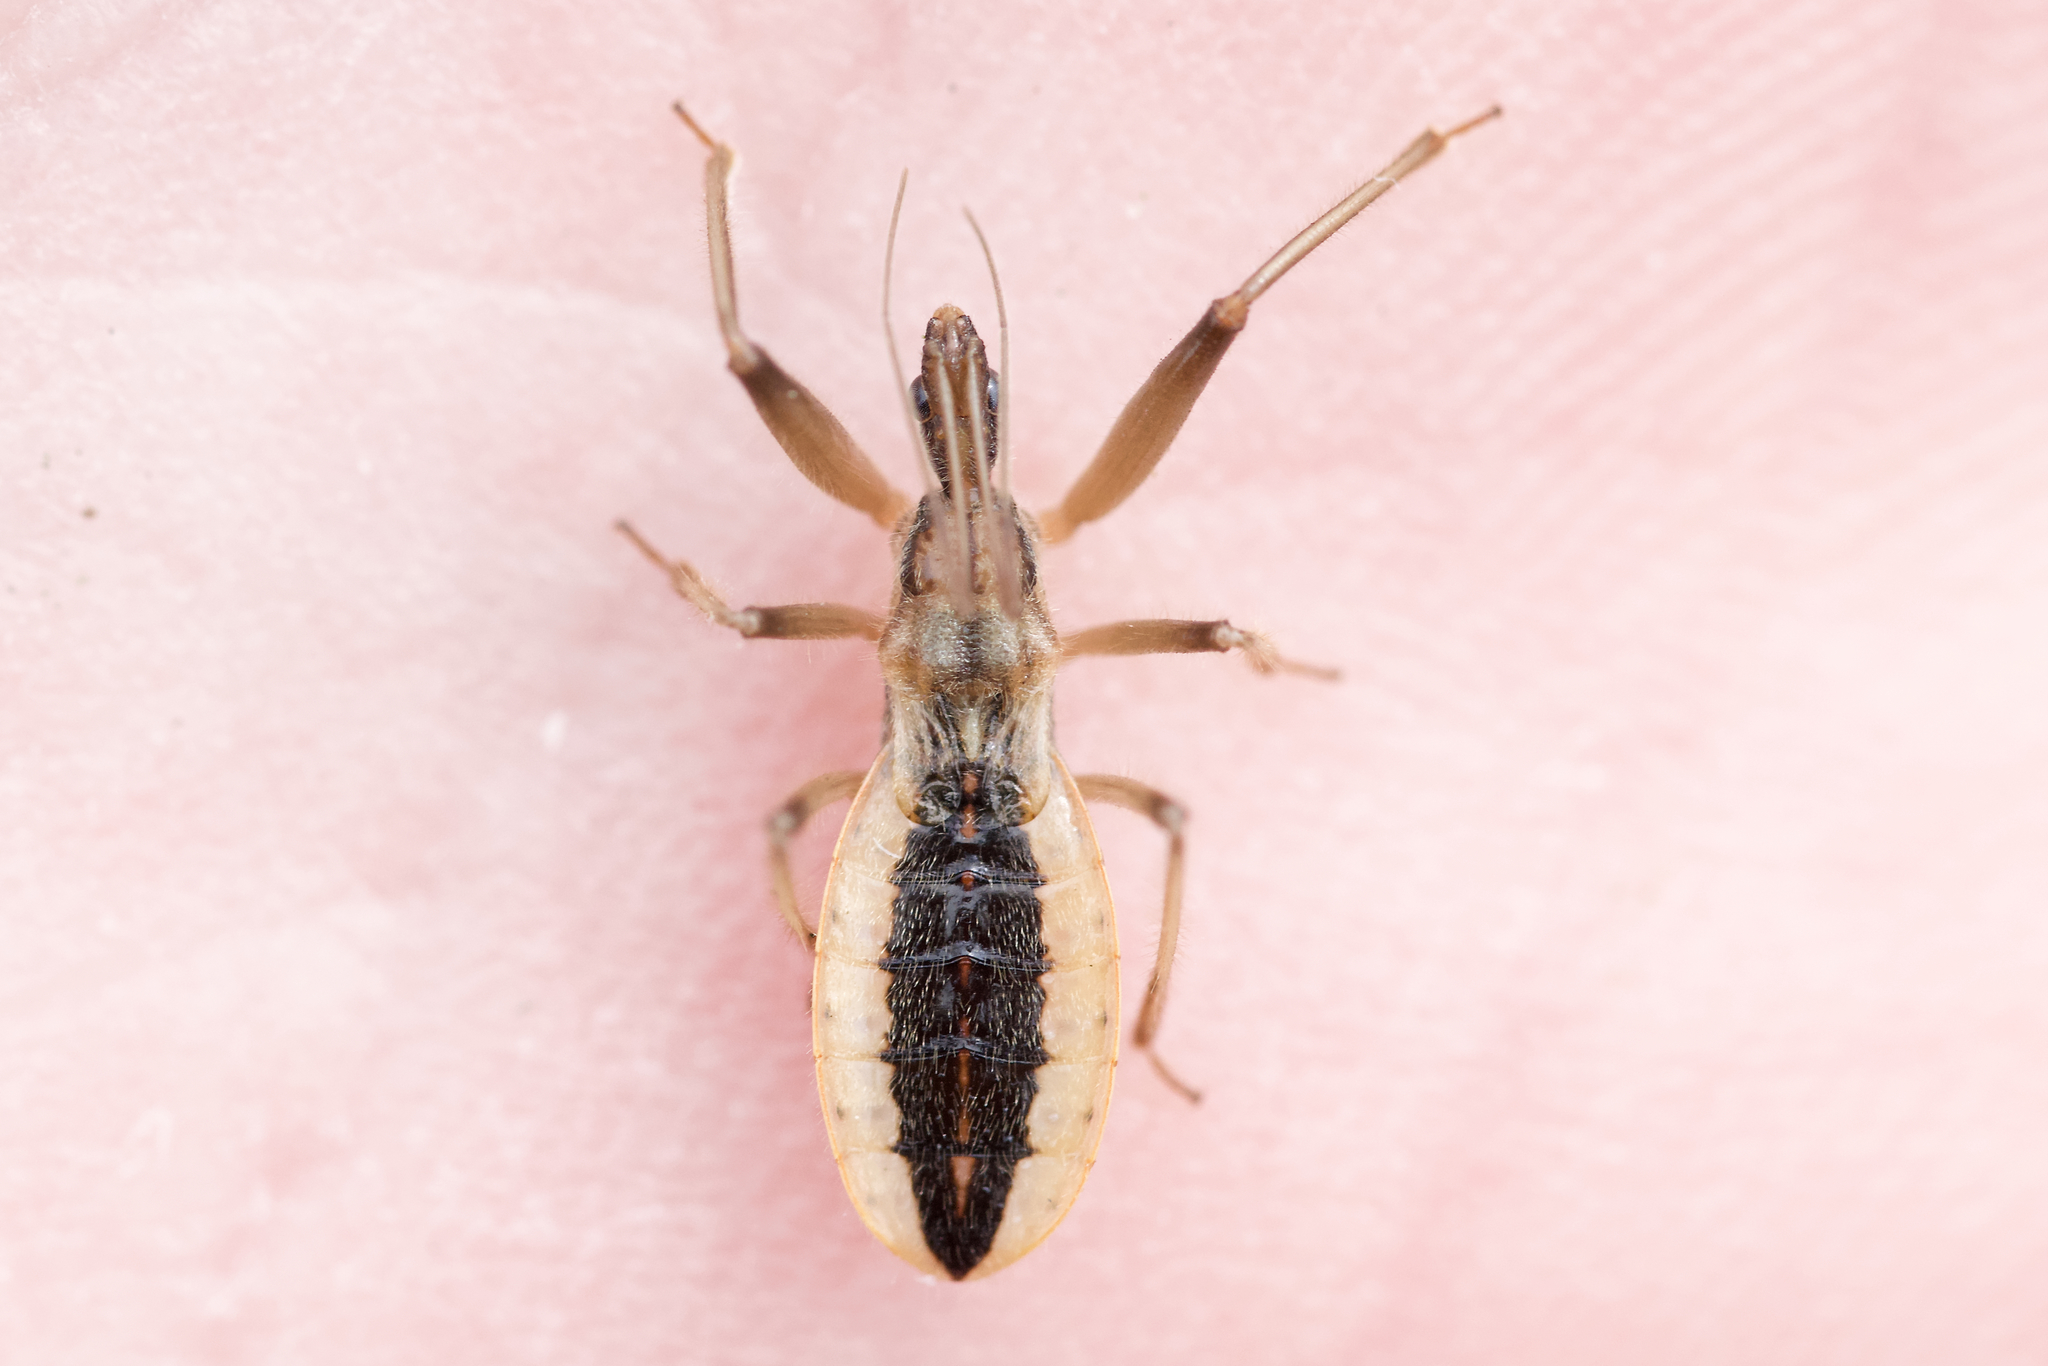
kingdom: Animalia
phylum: Arthropoda
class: Insecta
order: Hemiptera
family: Reduviidae
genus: Fitchia
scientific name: Fitchia aptera
